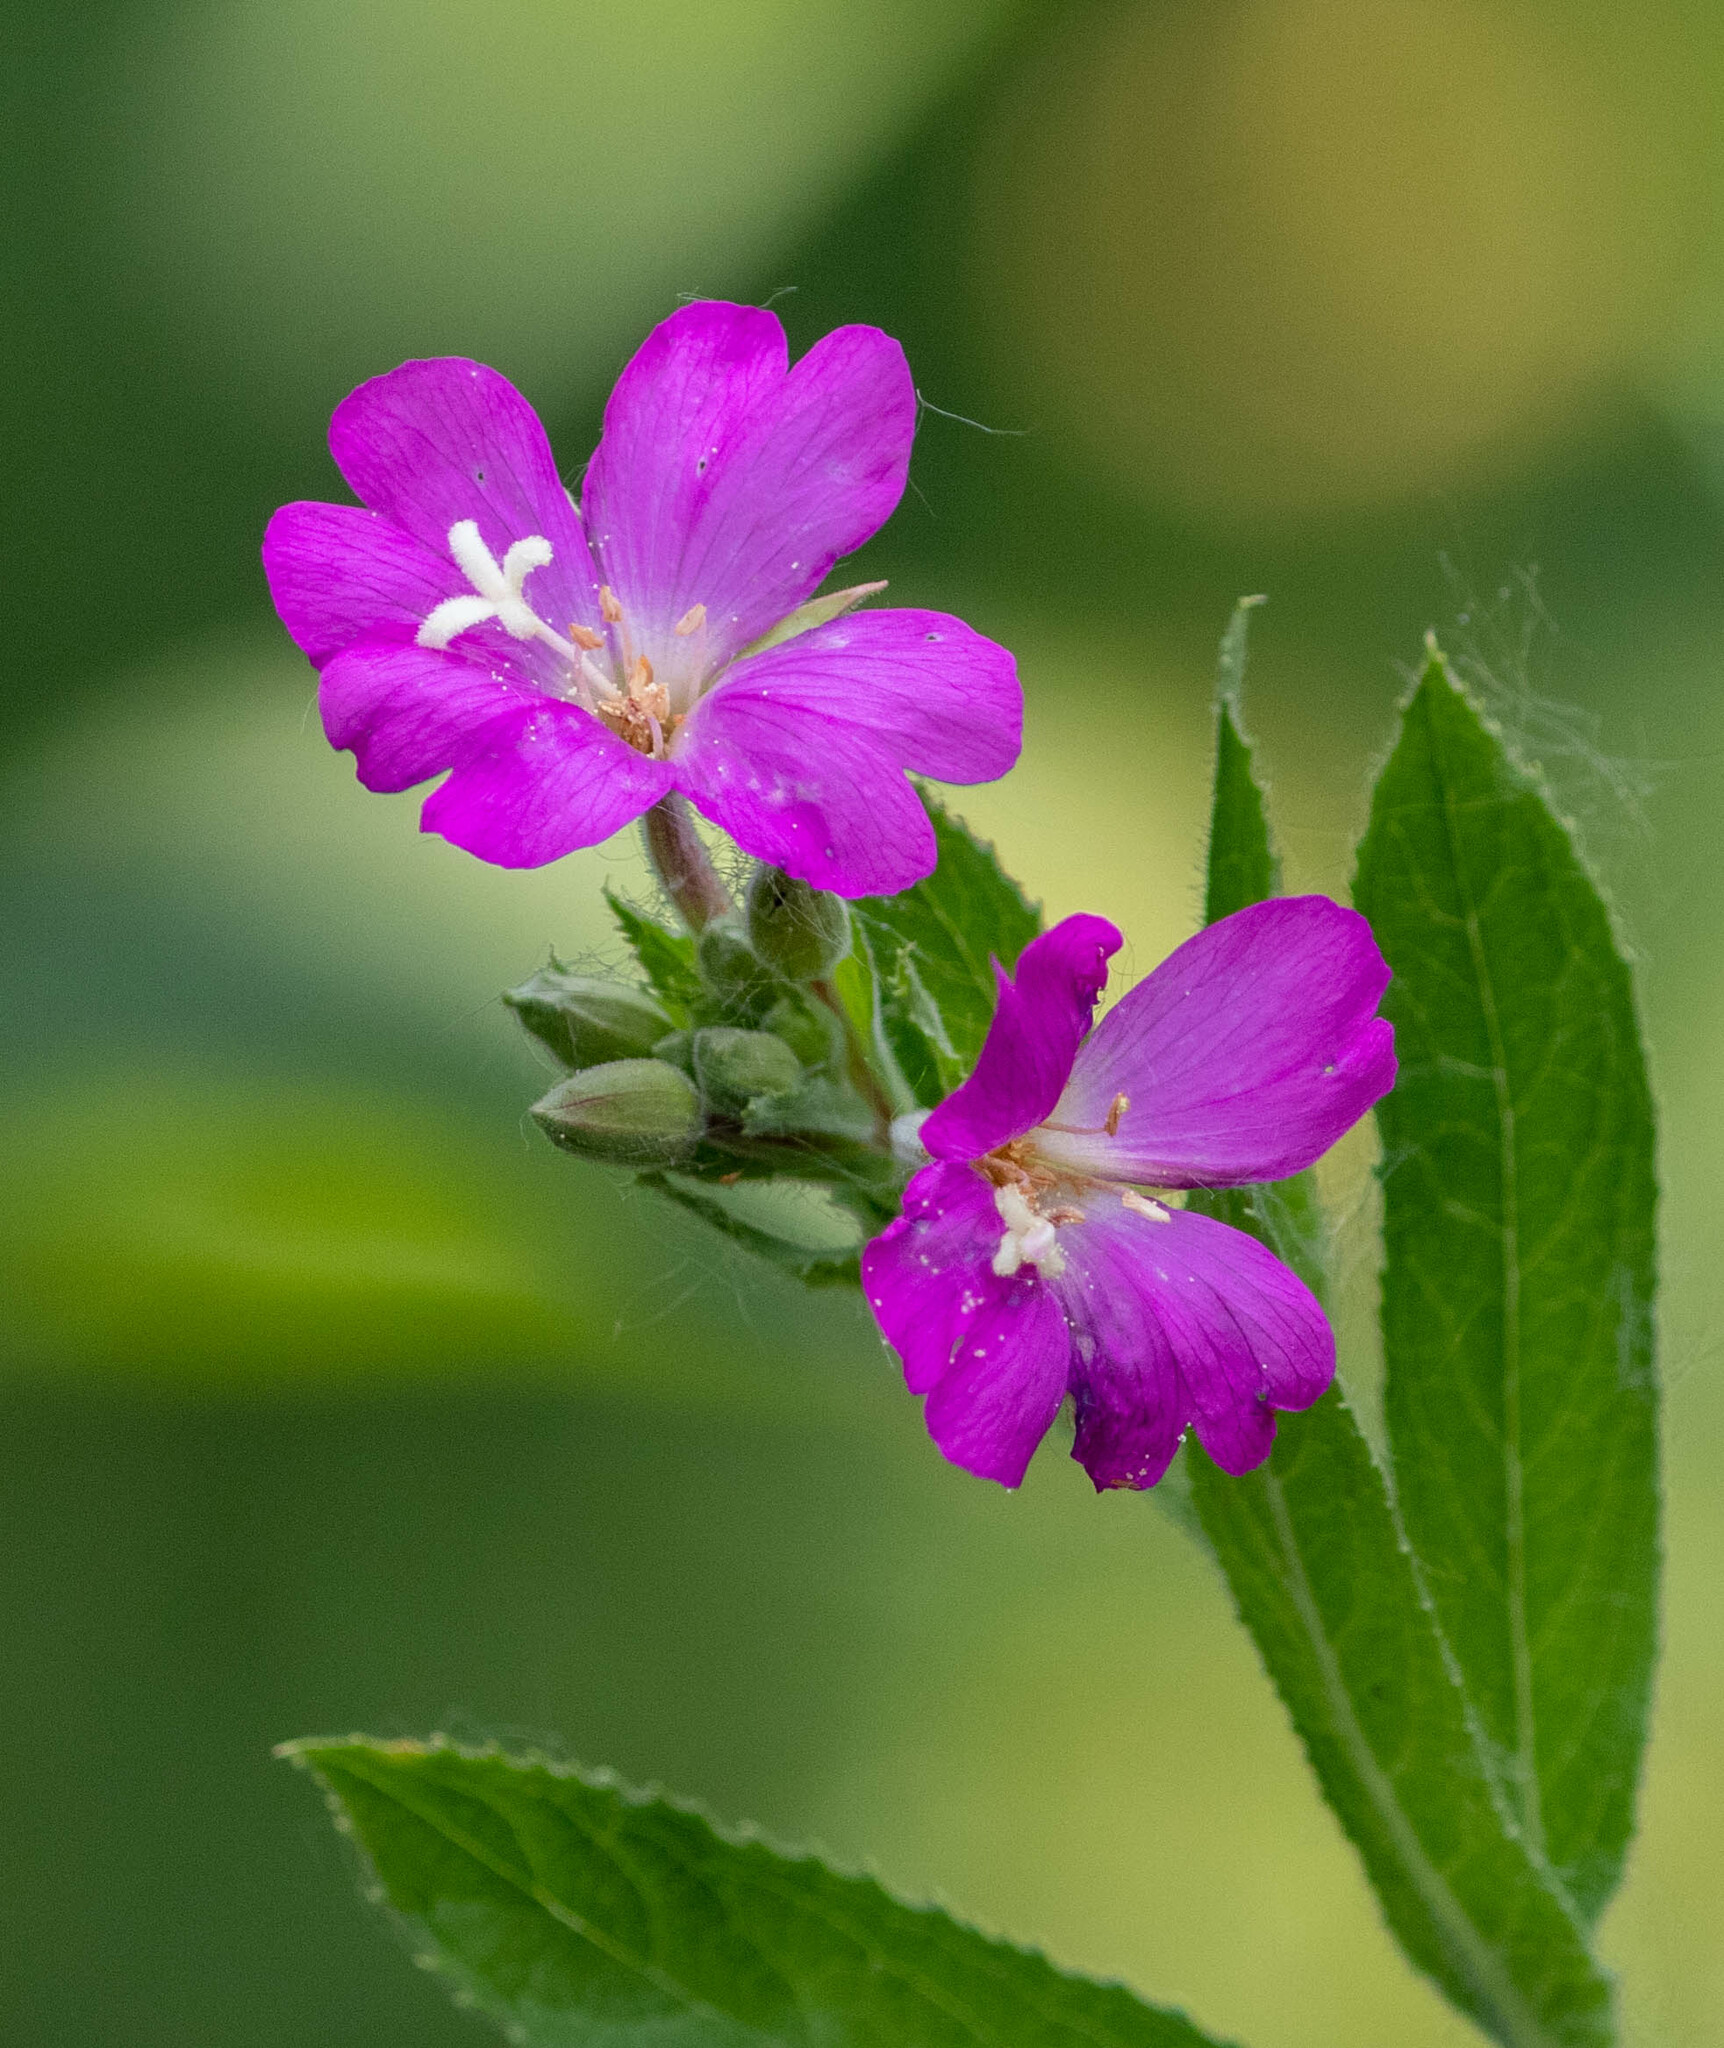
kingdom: Plantae
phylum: Tracheophyta
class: Magnoliopsida
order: Myrtales
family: Onagraceae
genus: Epilobium
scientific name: Epilobium hirsutum
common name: Great willowherb
